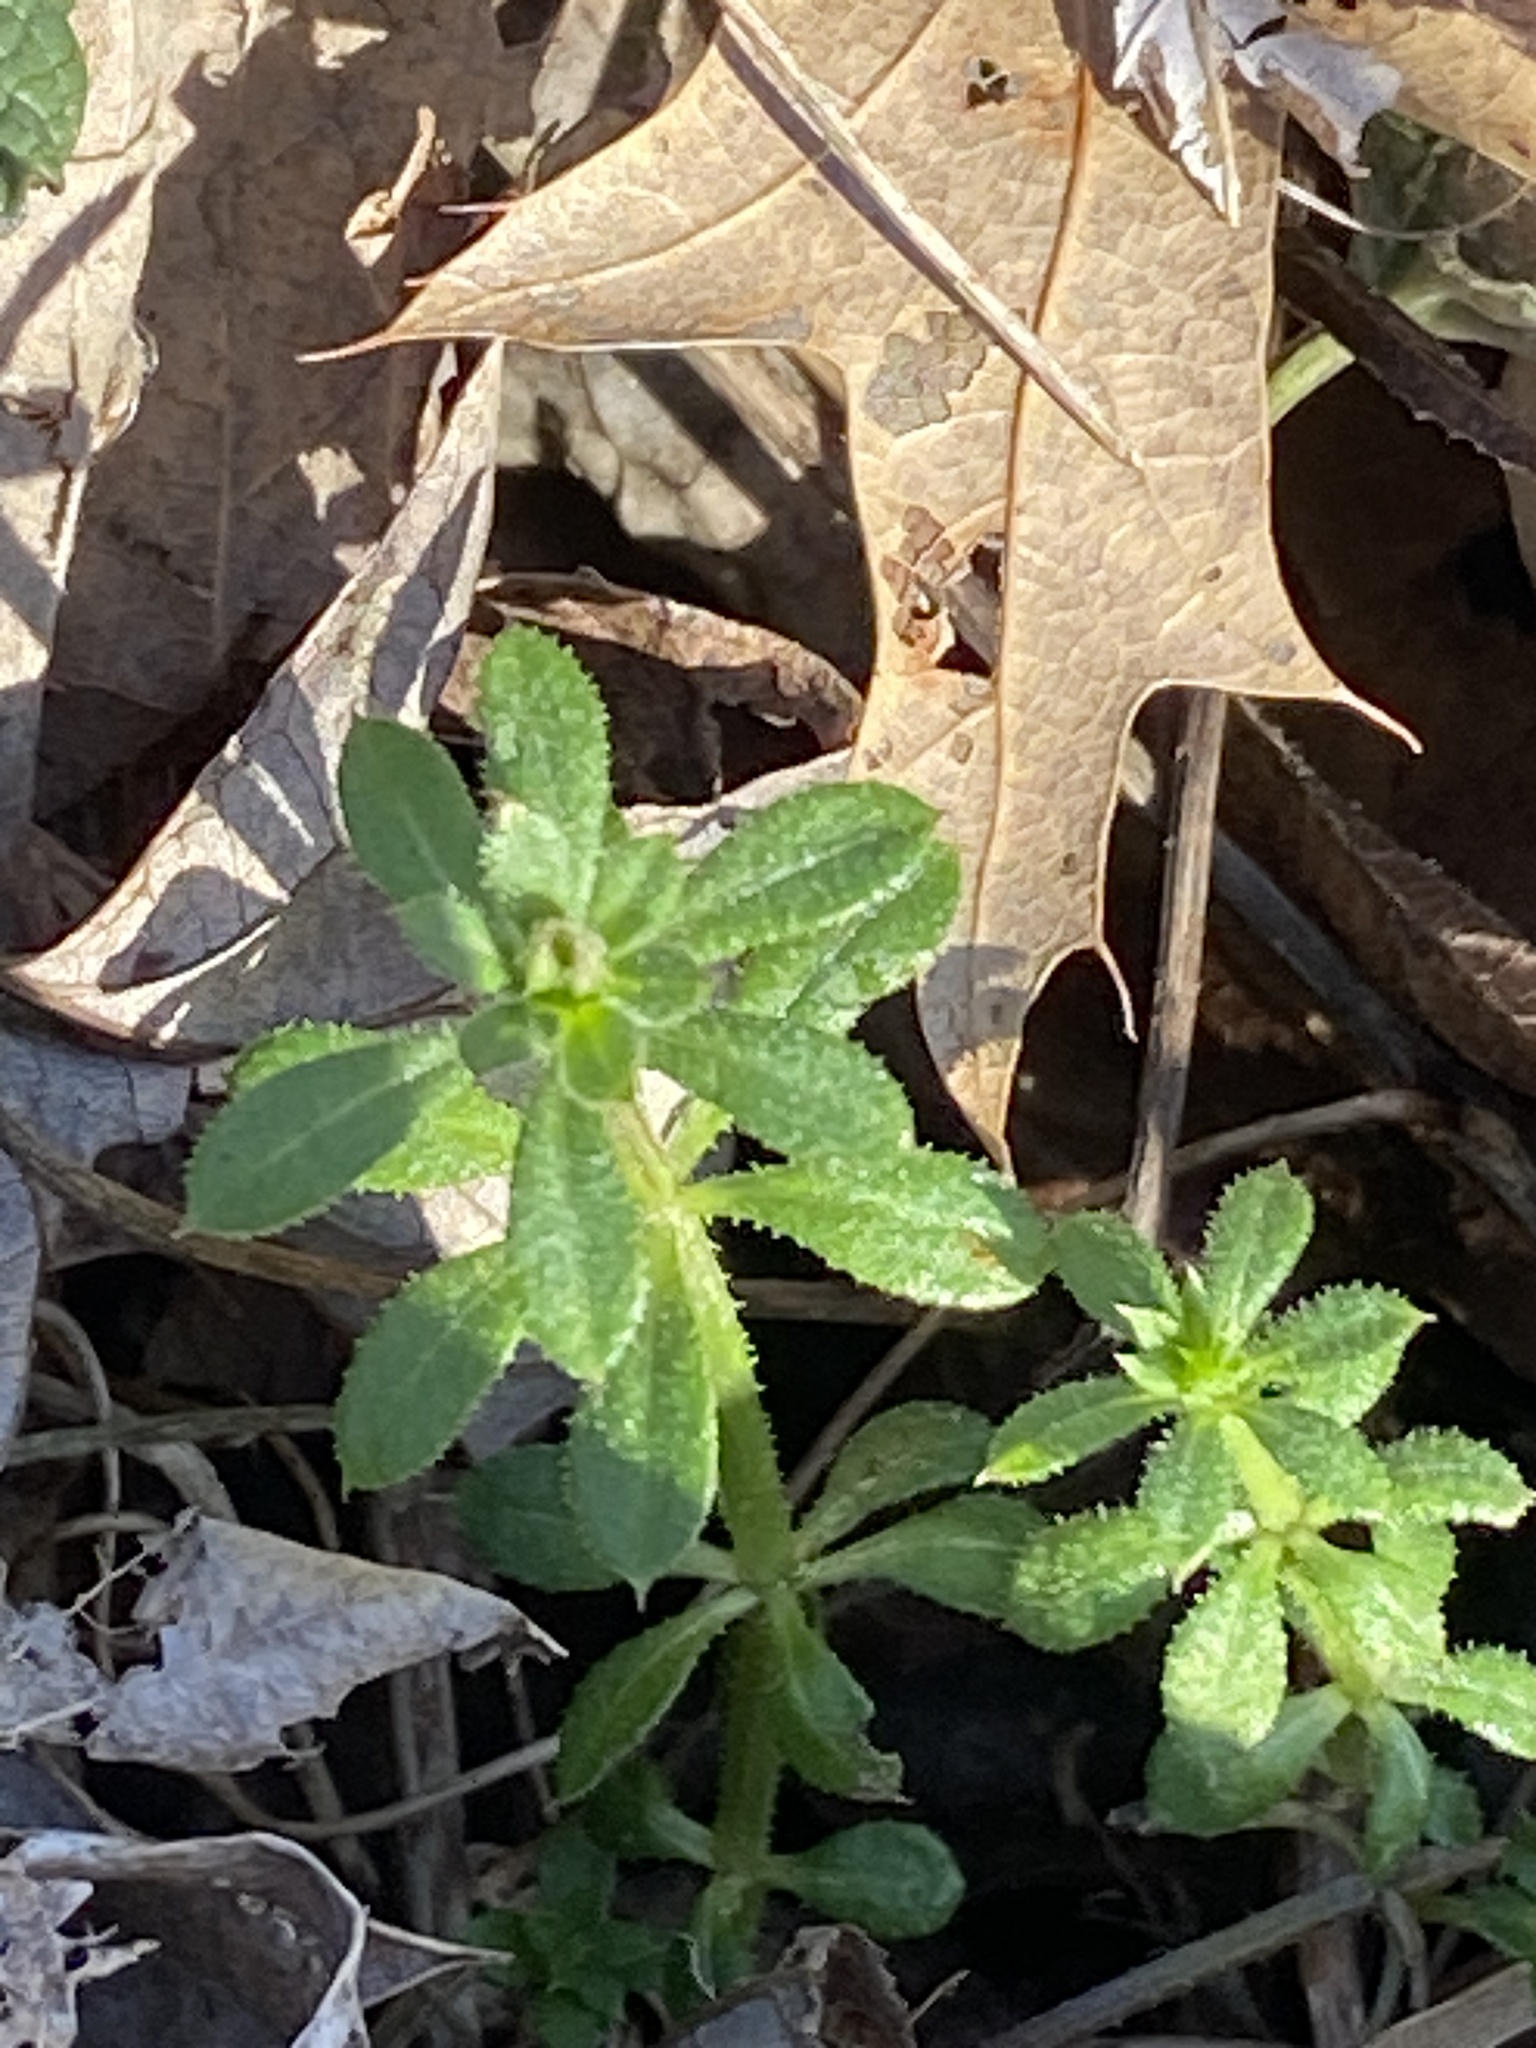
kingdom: Plantae
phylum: Tracheophyta
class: Magnoliopsida
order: Gentianales
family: Rubiaceae
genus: Galium
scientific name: Galium aparine
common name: Cleavers
